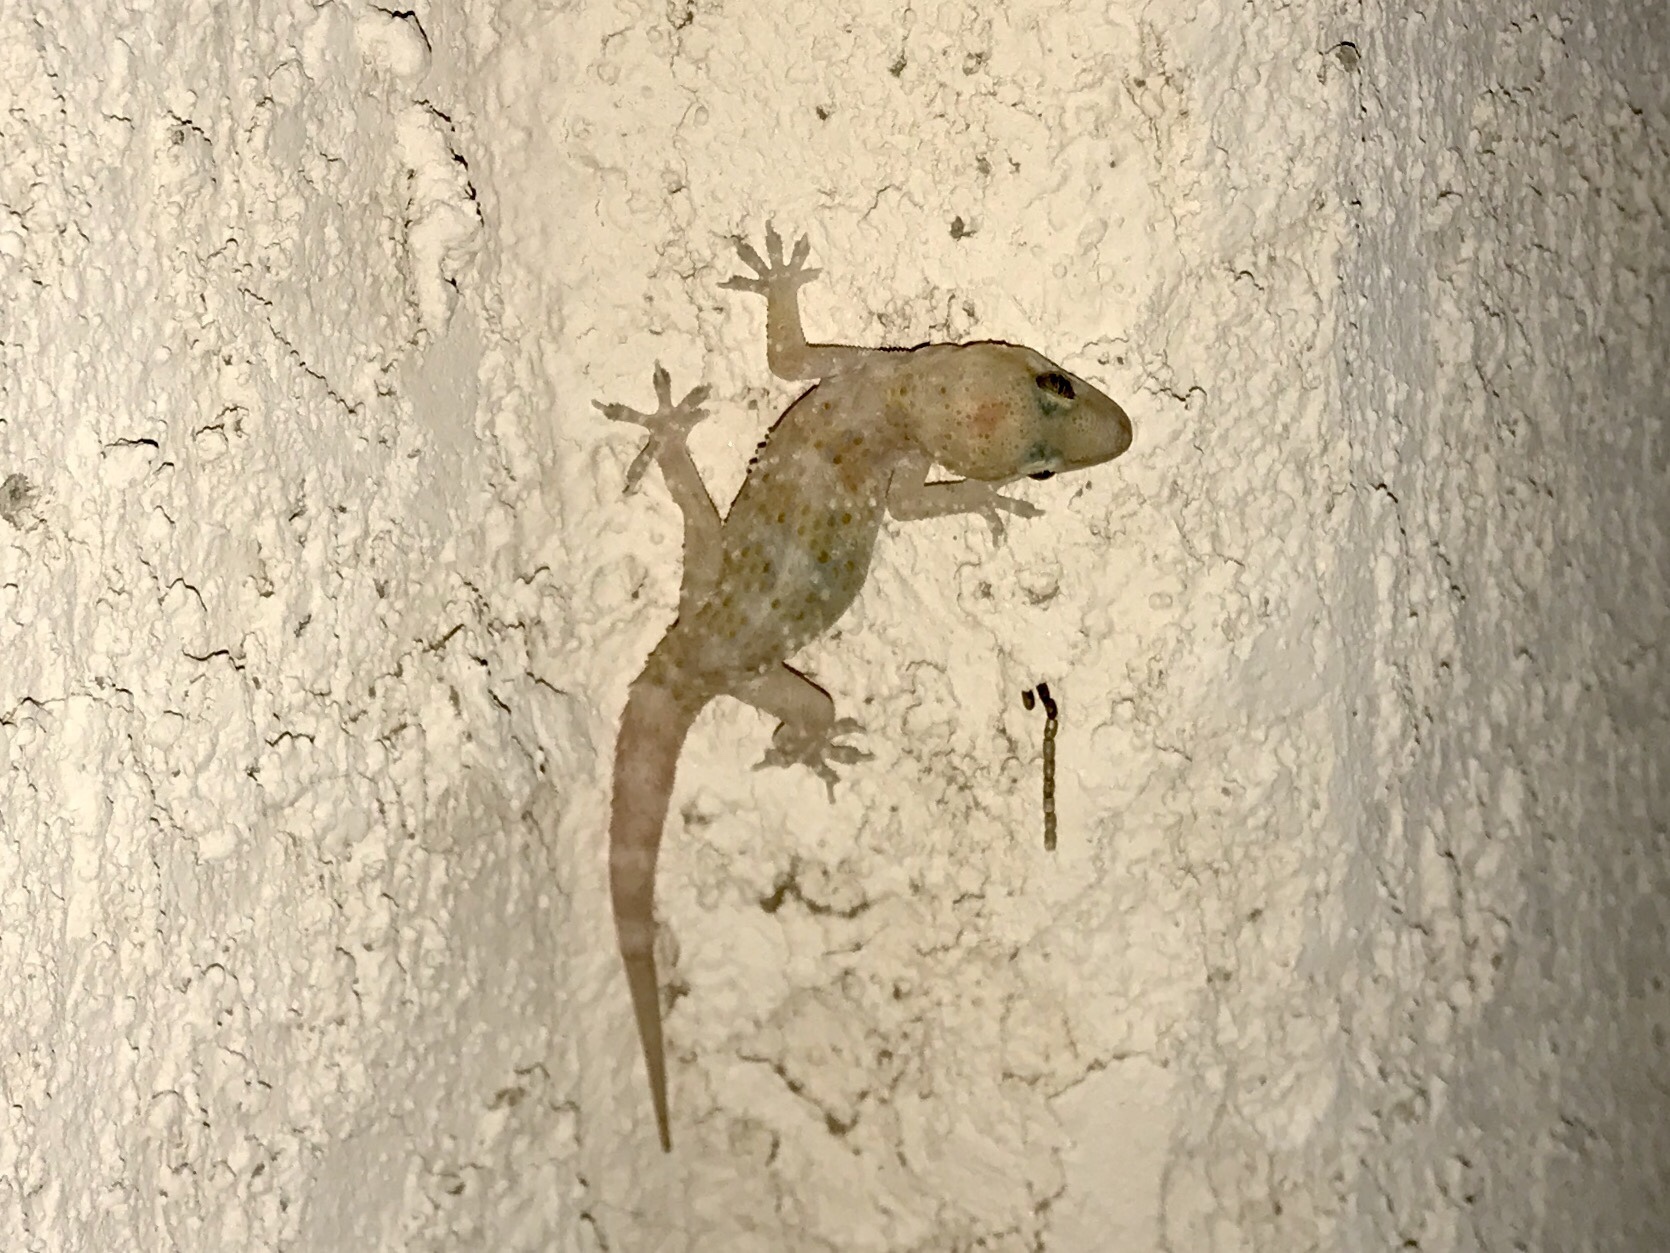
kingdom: Animalia
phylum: Chordata
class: Squamata
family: Gekkonidae
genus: Hemidactylus
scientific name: Hemidactylus turcicus
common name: Turkish gecko
